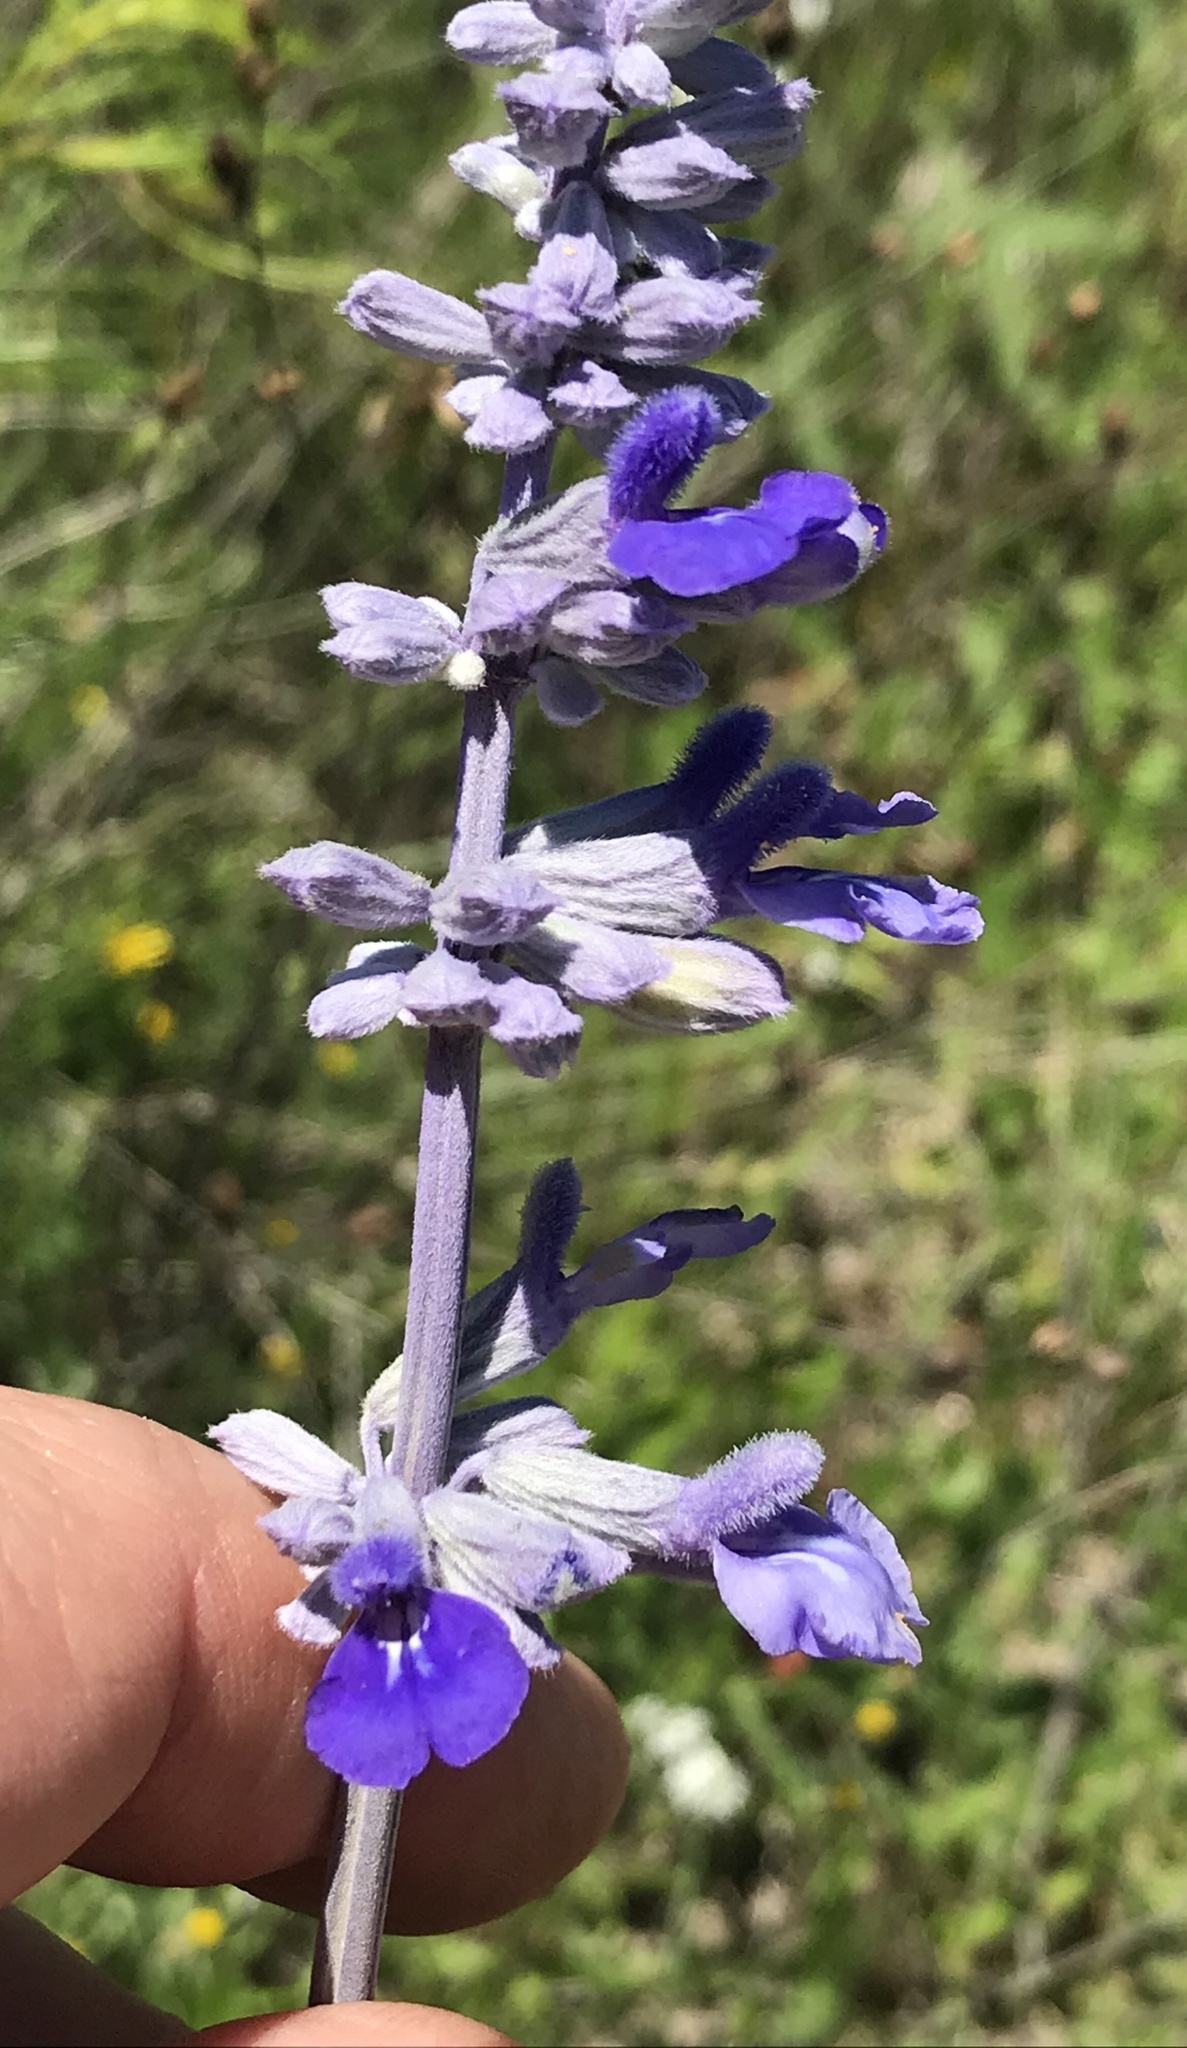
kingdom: Plantae
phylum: Tracheophyta
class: Magnoliopsida
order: Lamiales
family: Lamiaceae
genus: Salvia
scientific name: Salvia farinacea
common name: Mealy sage
